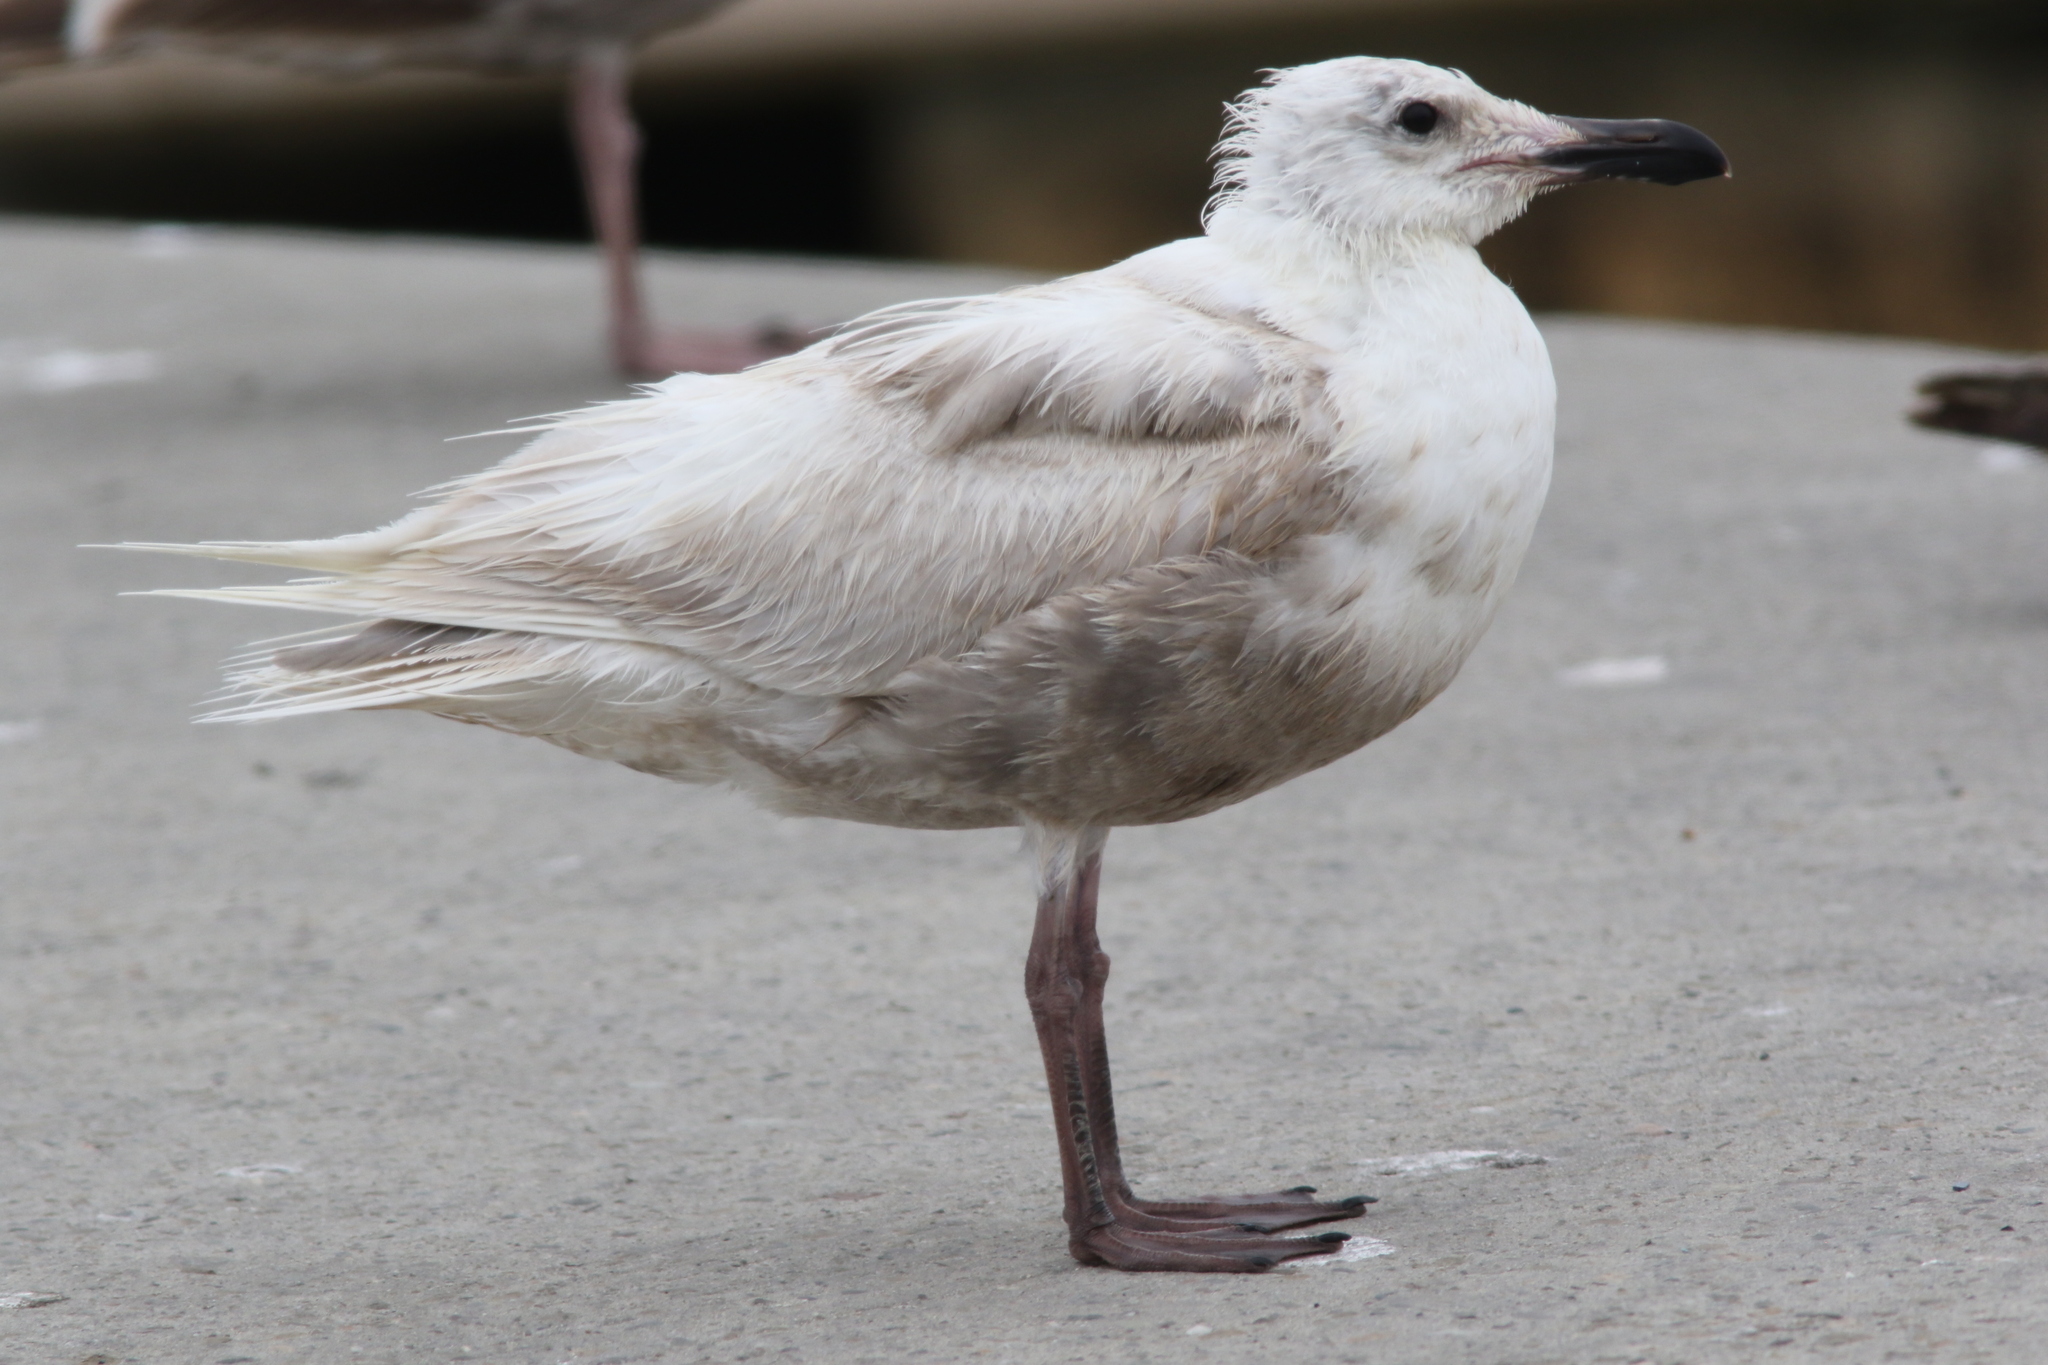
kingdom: Animalia
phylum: Chordata
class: Aves
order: Charadriiformes
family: Laridae
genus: Larus
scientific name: Larus glaucescens
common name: Glaucous-winged gull
